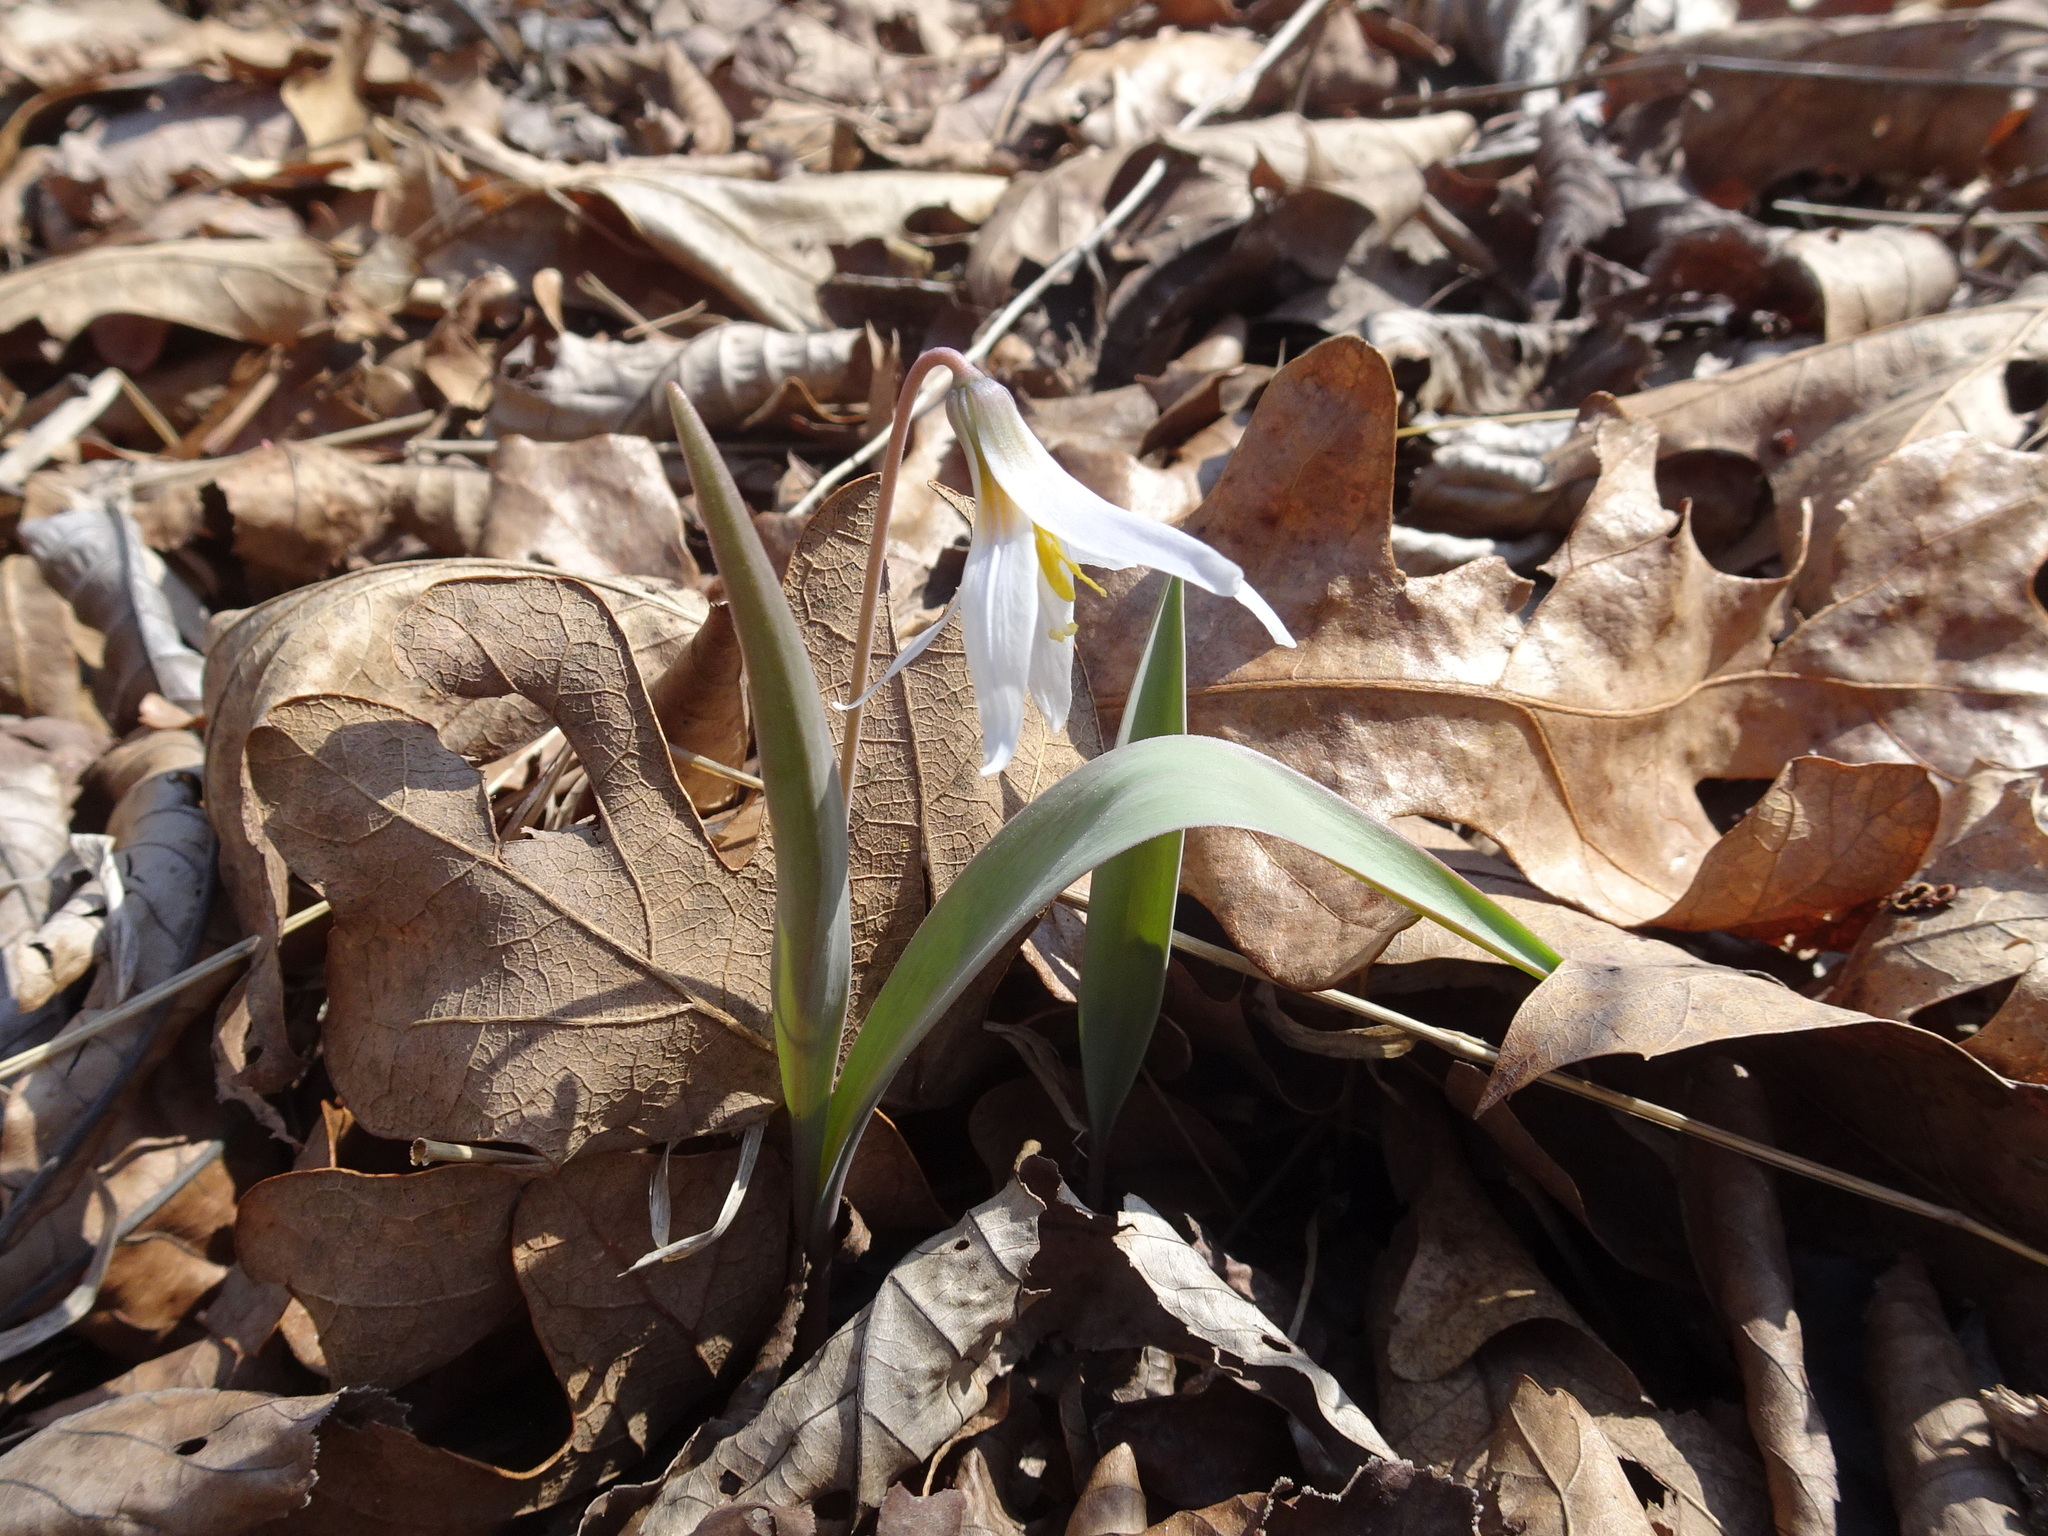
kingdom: Plantae
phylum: Tracheophyta
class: Liliopsida
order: Liliales
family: Liliaceae
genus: Erythronium
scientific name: Erythronium mesochoreum
